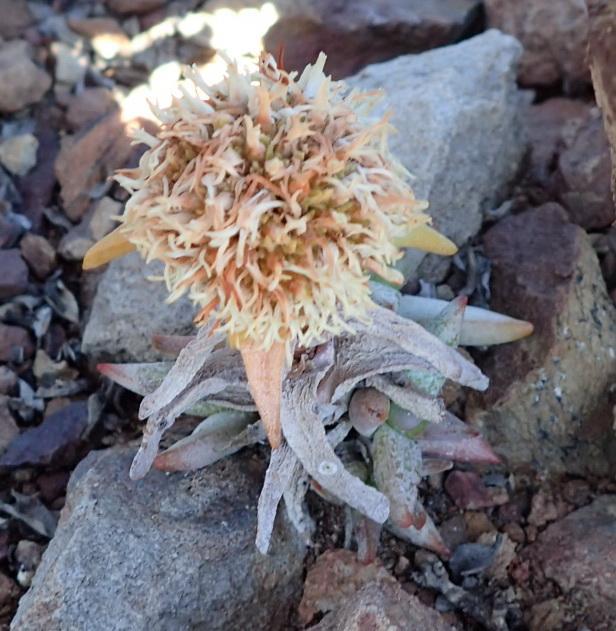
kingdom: Plantae
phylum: Tracheophyta
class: Magnoliopsida
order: Saxifragales
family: Crassulaceae
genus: Crassula
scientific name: Crassula congesta
